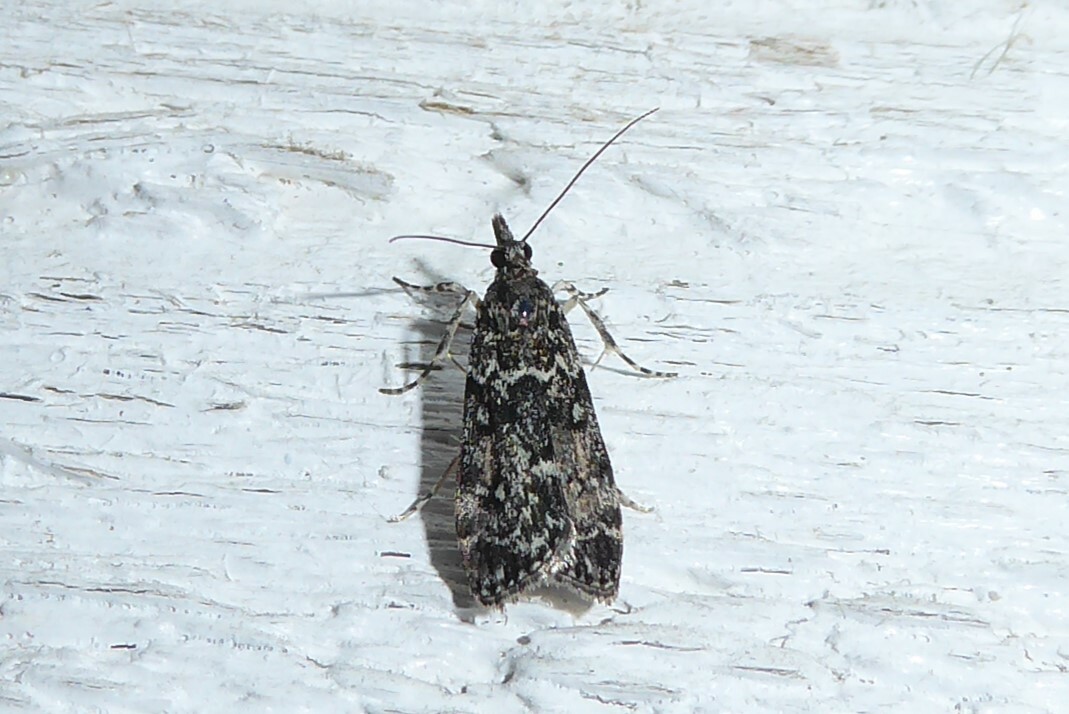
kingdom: Animalia
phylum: Arthropoda
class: Insecta
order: Lepidoptera
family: Crambidae
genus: Eudonia
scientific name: Eudonia philerga
